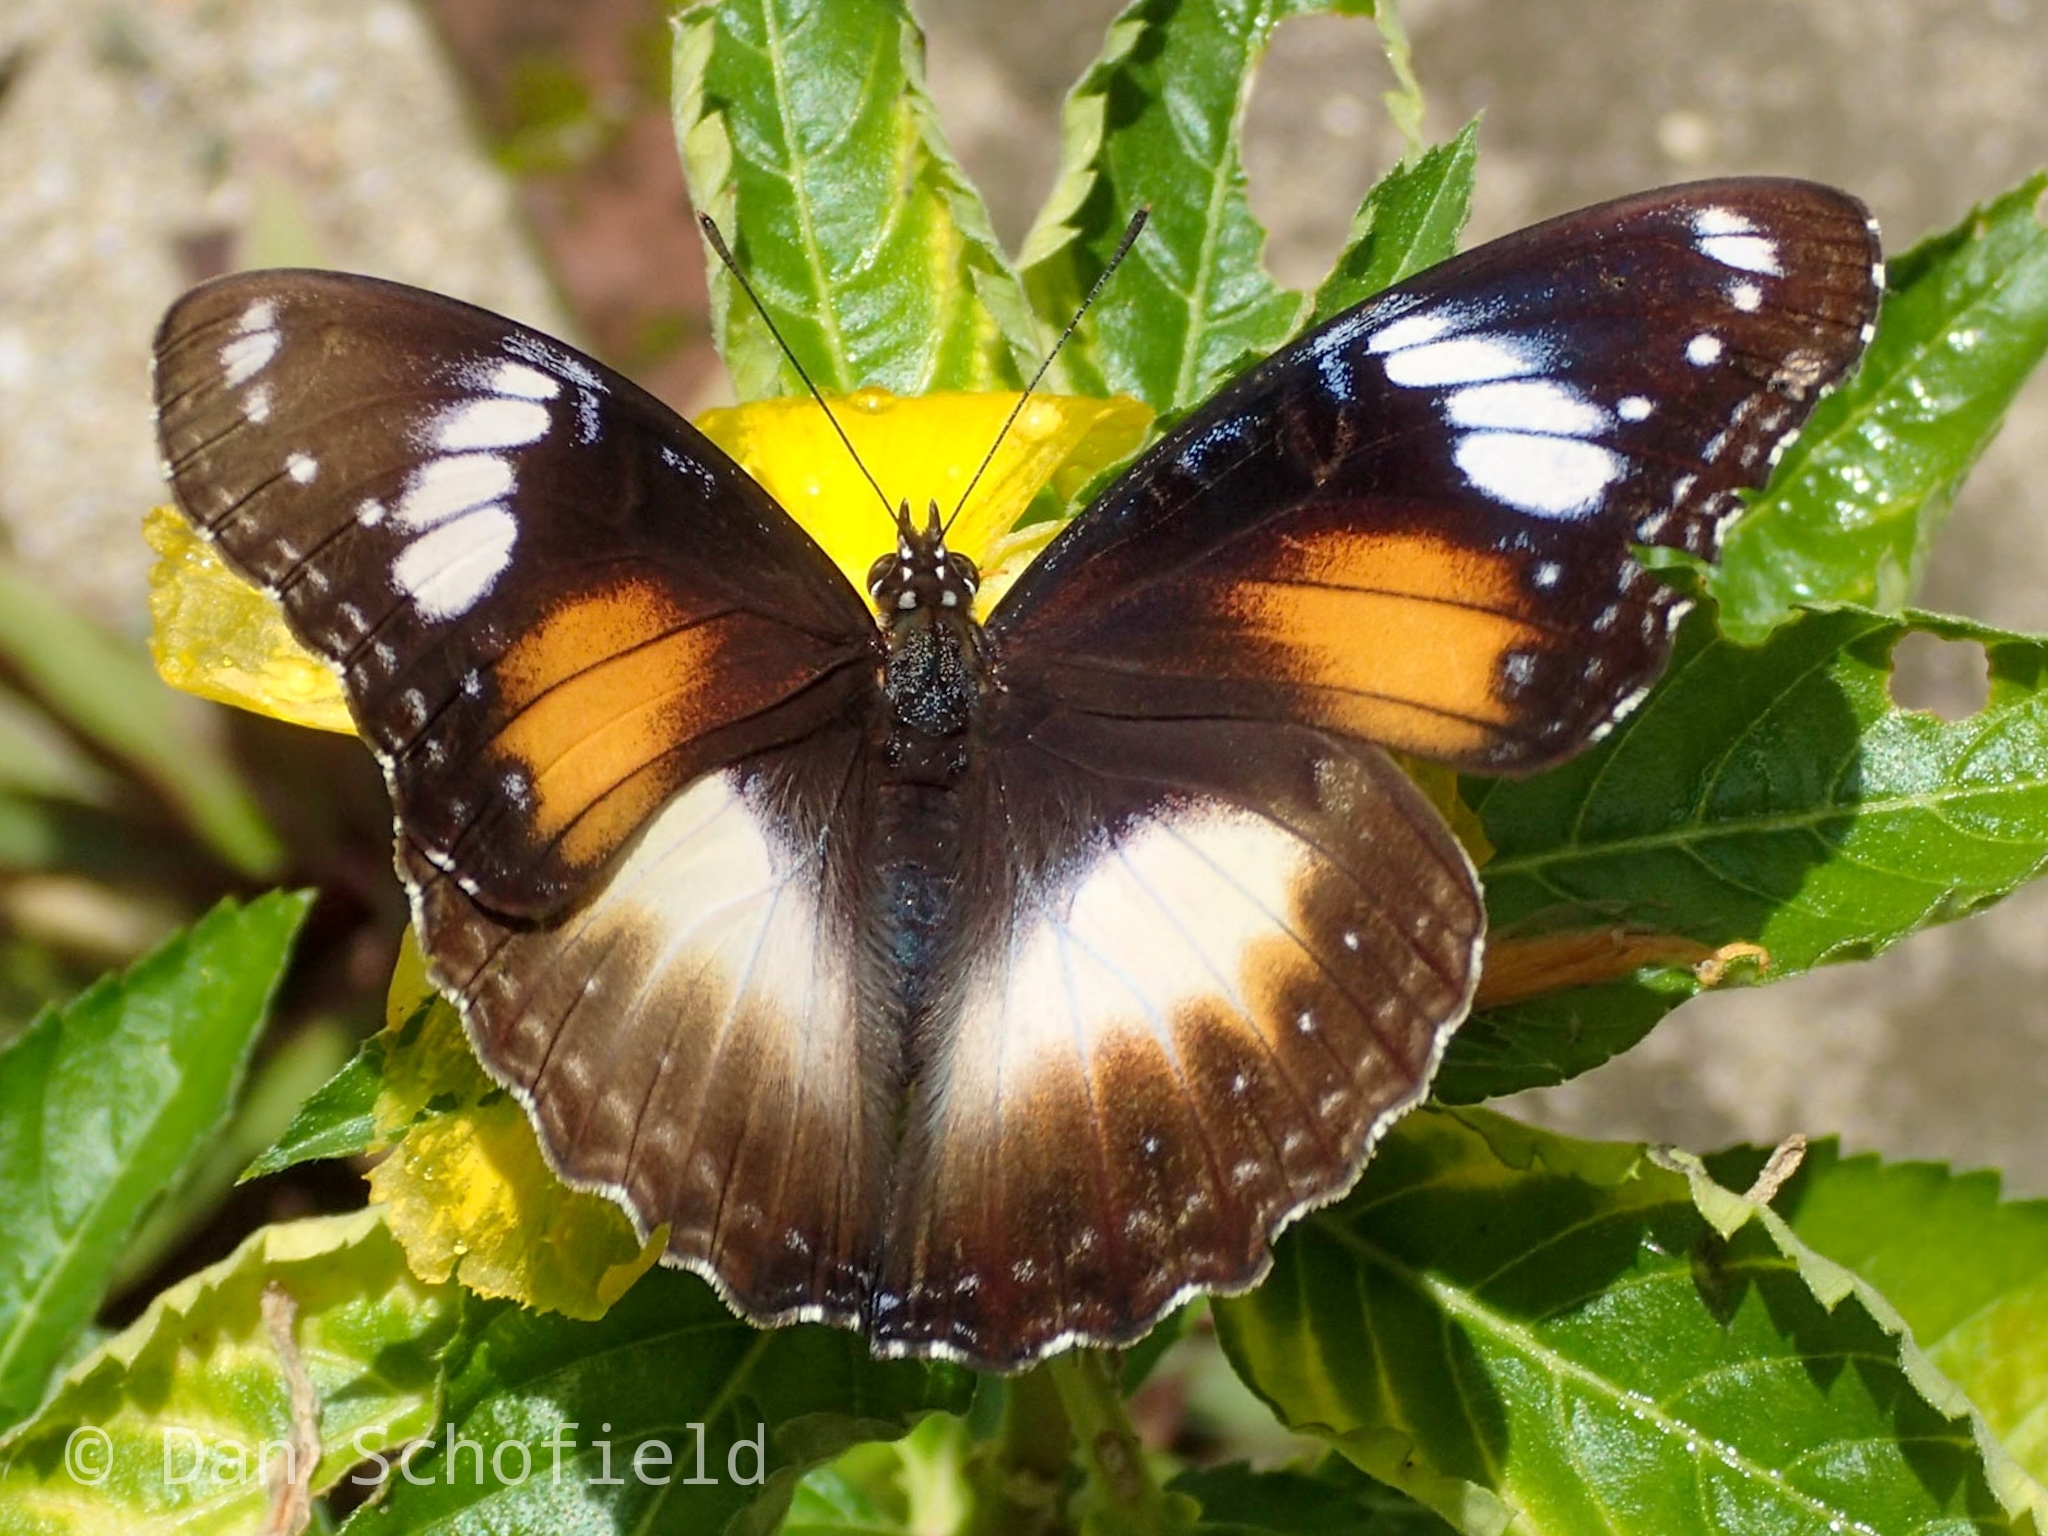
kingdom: Animalia
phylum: Arthropoda
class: Insecta
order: Lepidoptera
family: Nymphalidae
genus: Hypolimnas
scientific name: Hypolimnas bolina
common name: Great eggfly
